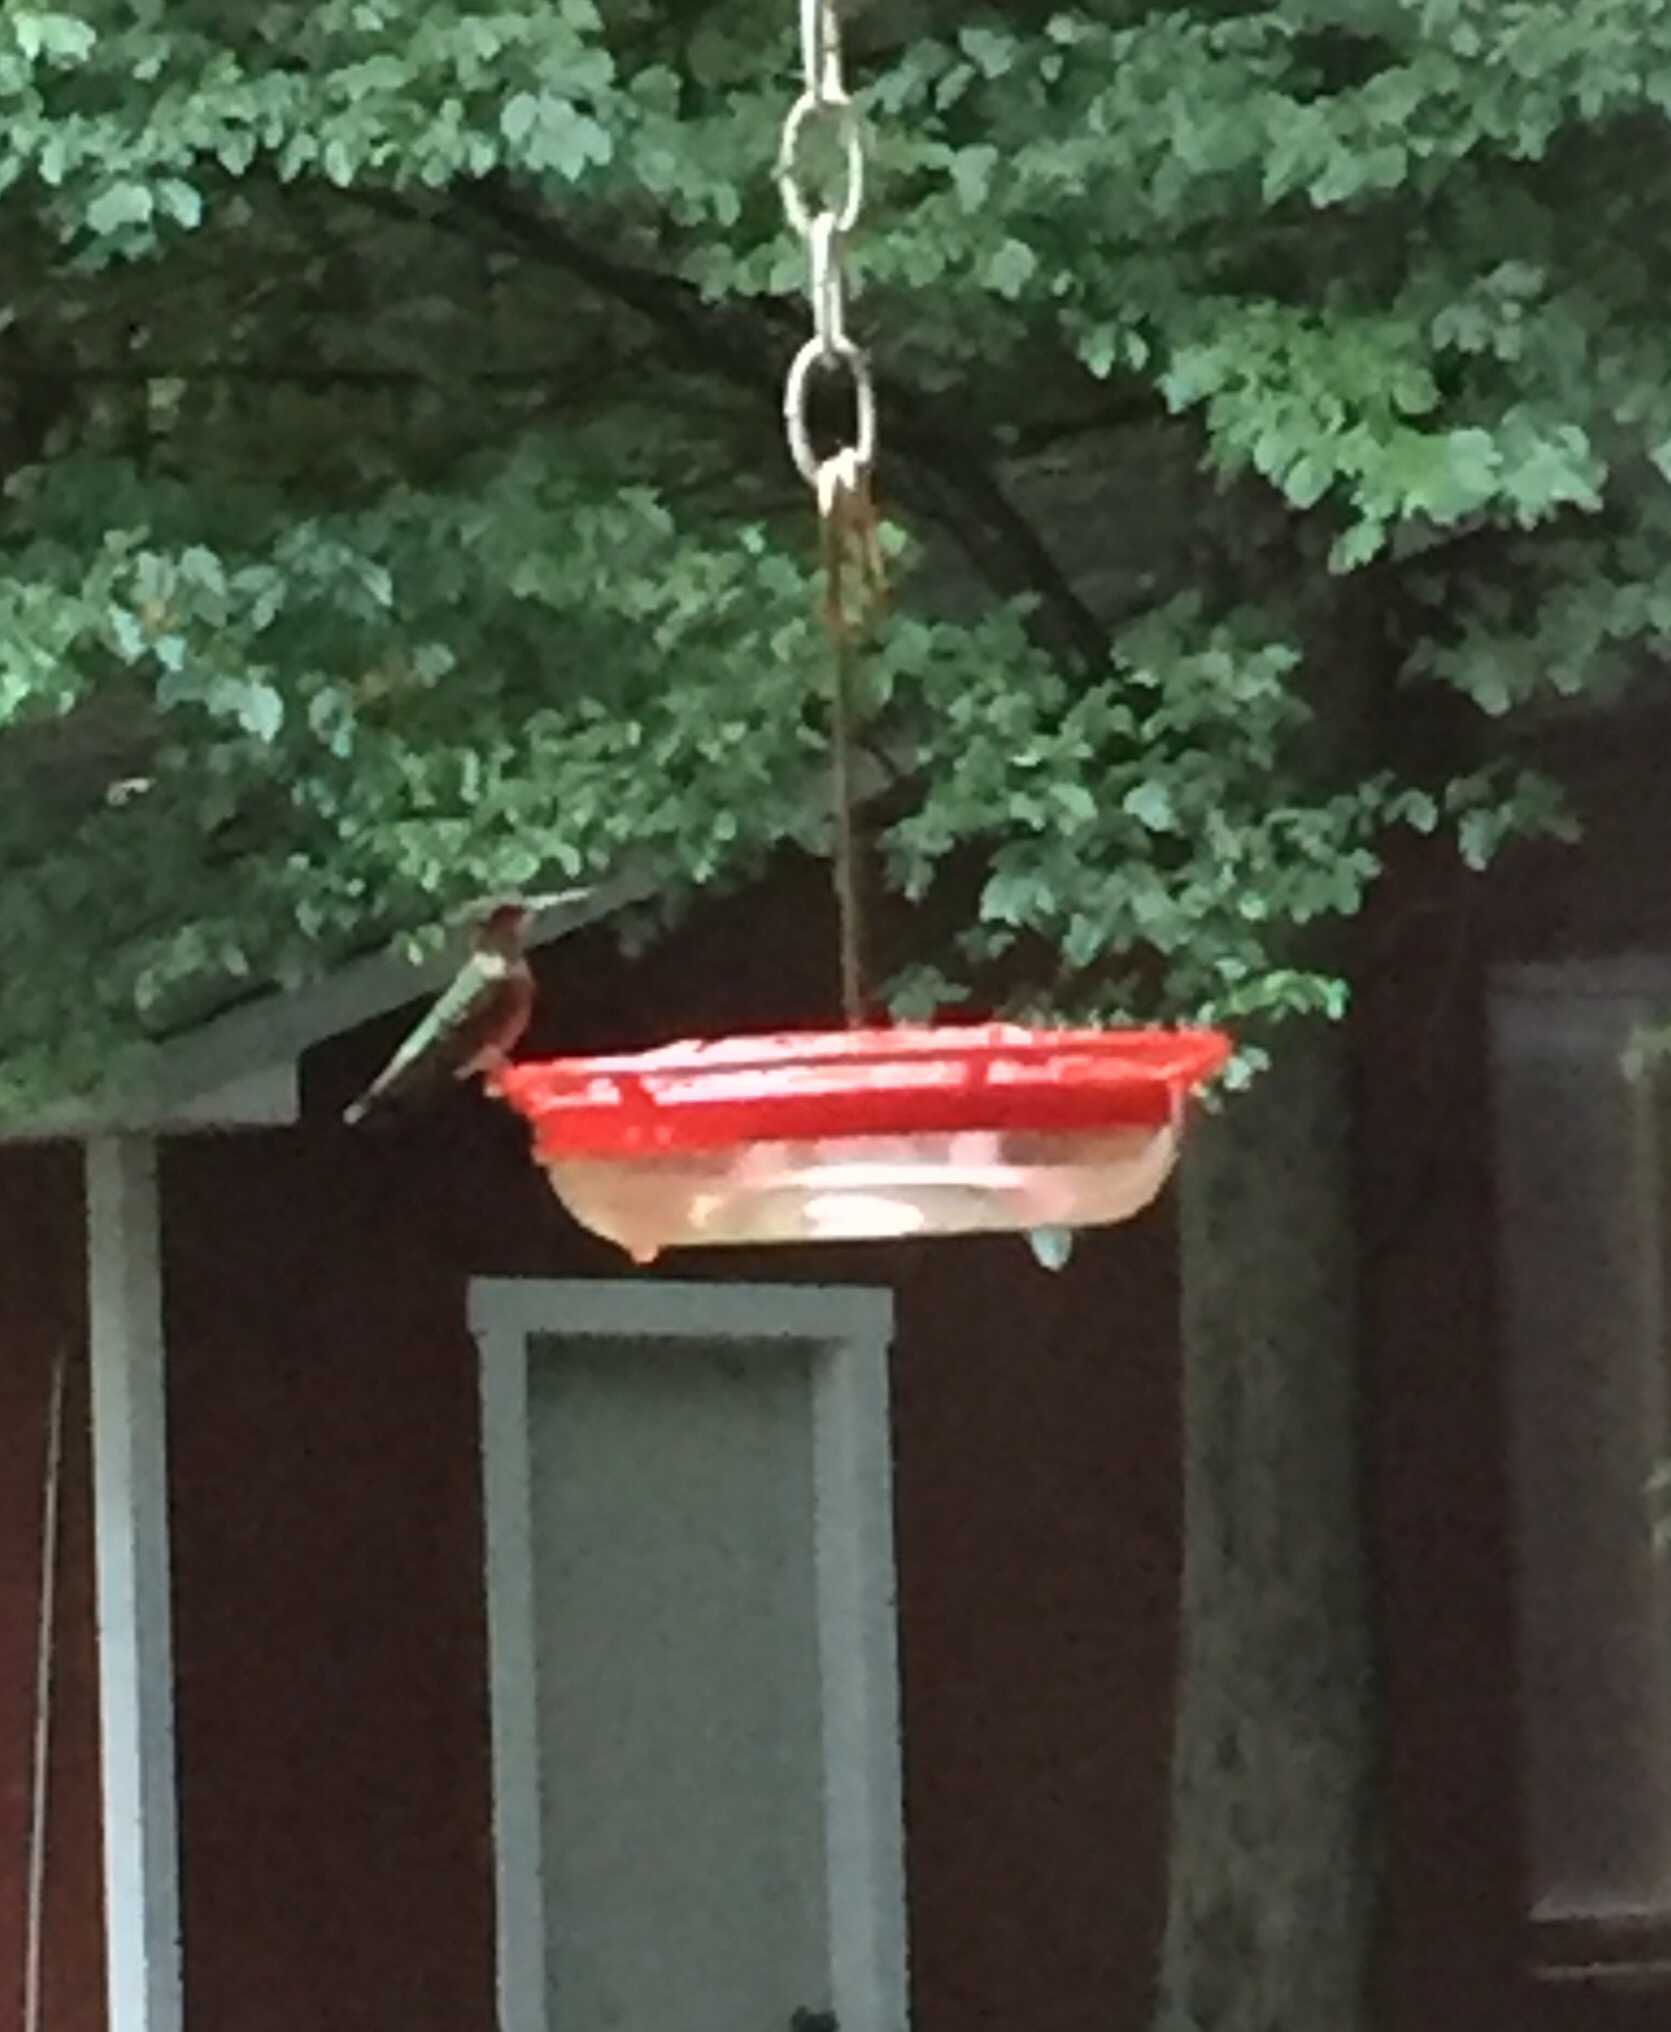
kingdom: Animalia
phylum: Chordata
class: Aves
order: Apodiformes
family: Trochilidae
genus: Archilochus
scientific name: Archilochus colubris
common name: Ruby-throated hummingbird
